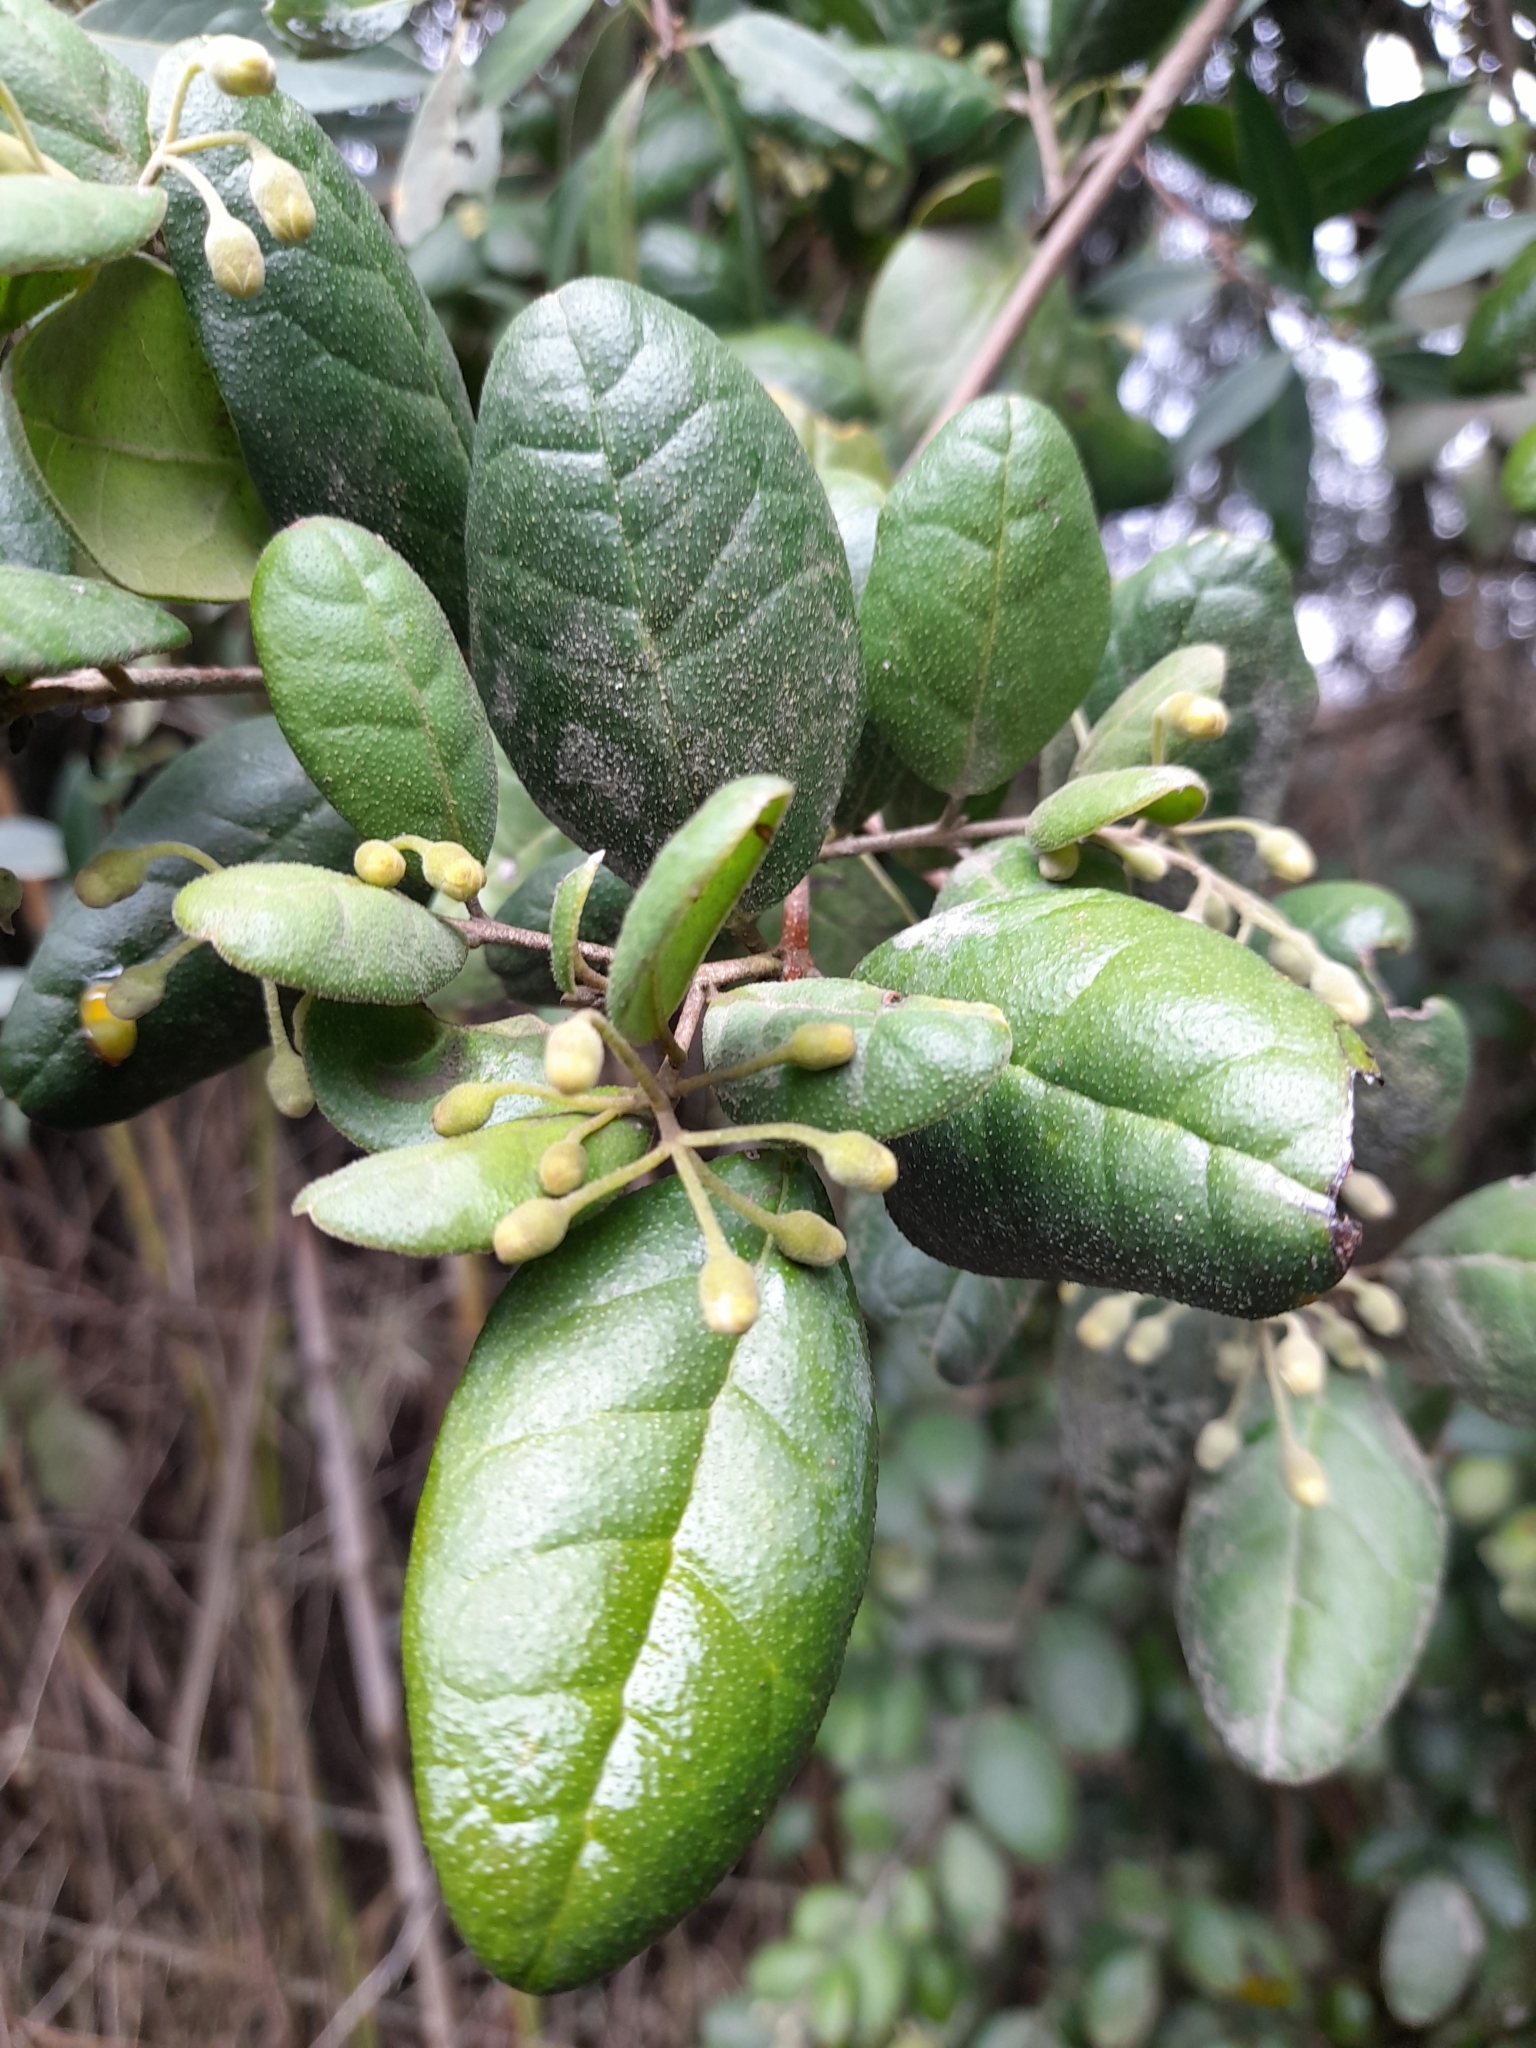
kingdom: Plantae
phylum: Tracheophyta
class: Magnoliopsida
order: Laurales
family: Monimiaceae
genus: Peumus
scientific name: Peumus boldus
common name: Boldo
